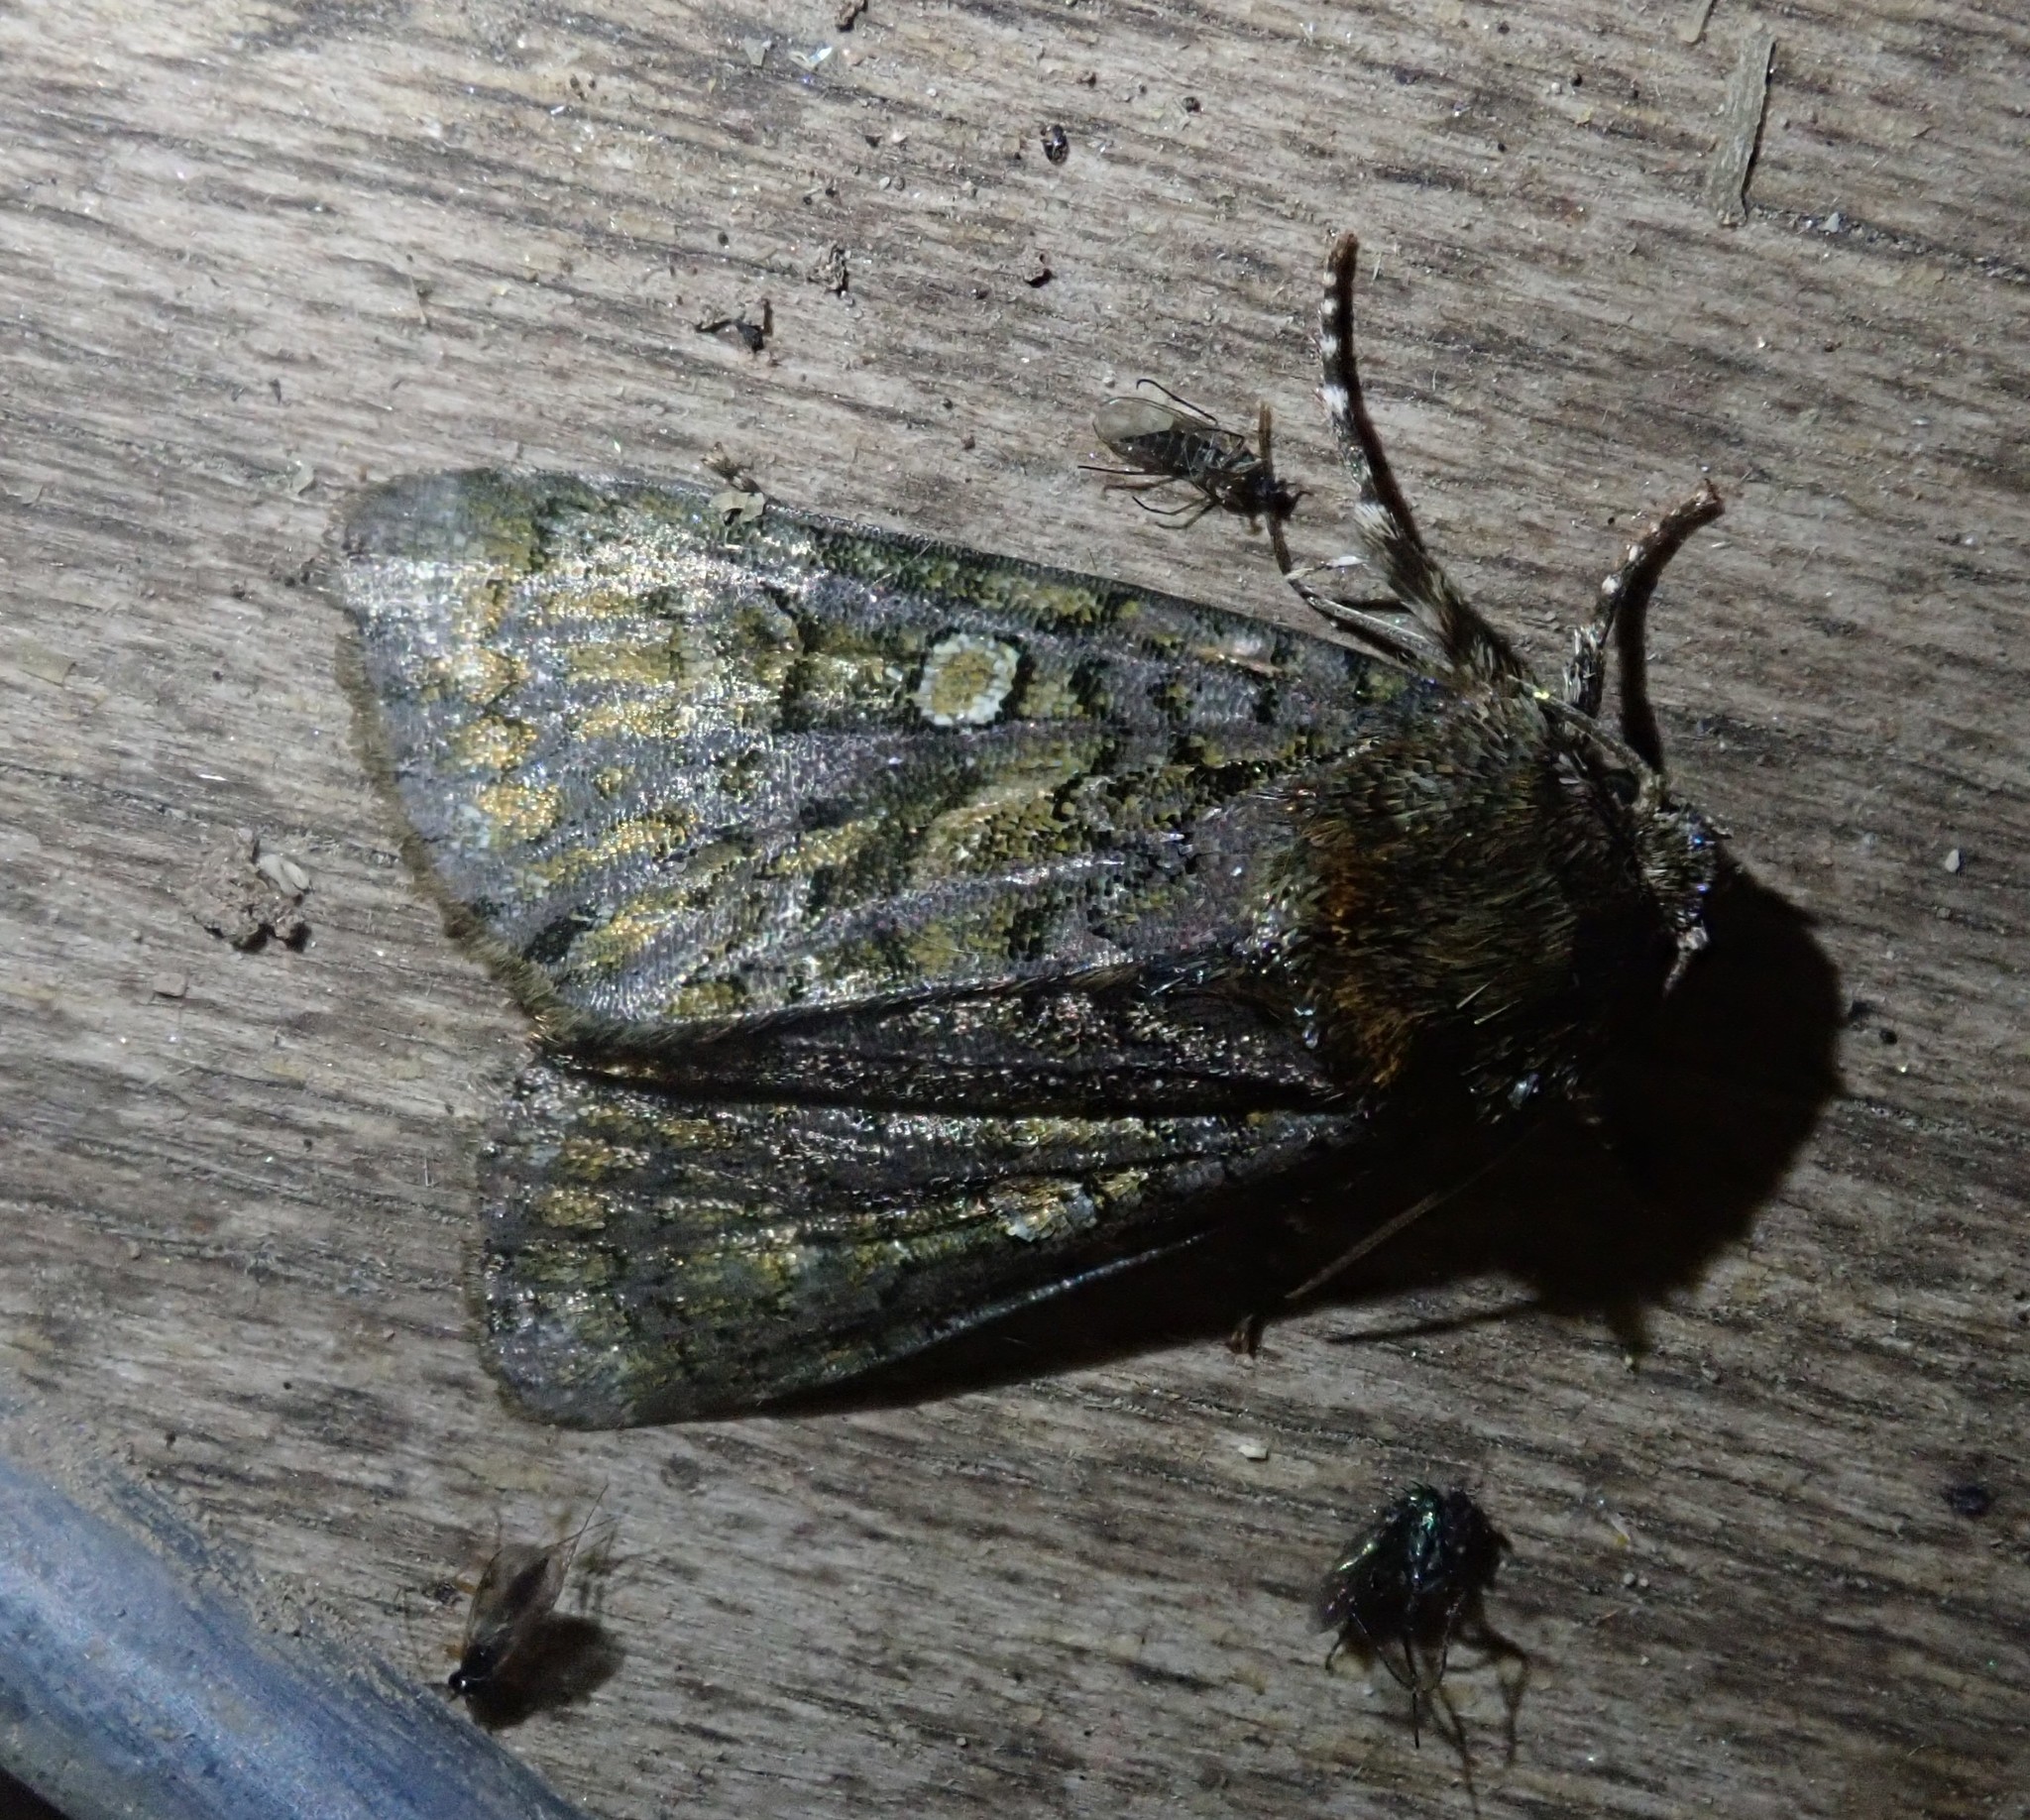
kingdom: Animalia
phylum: Arthropoda
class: Insecta
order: Lepidoptera
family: Noctuidae
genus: Craniophora
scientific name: Craniophora ligustri
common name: Coronet
